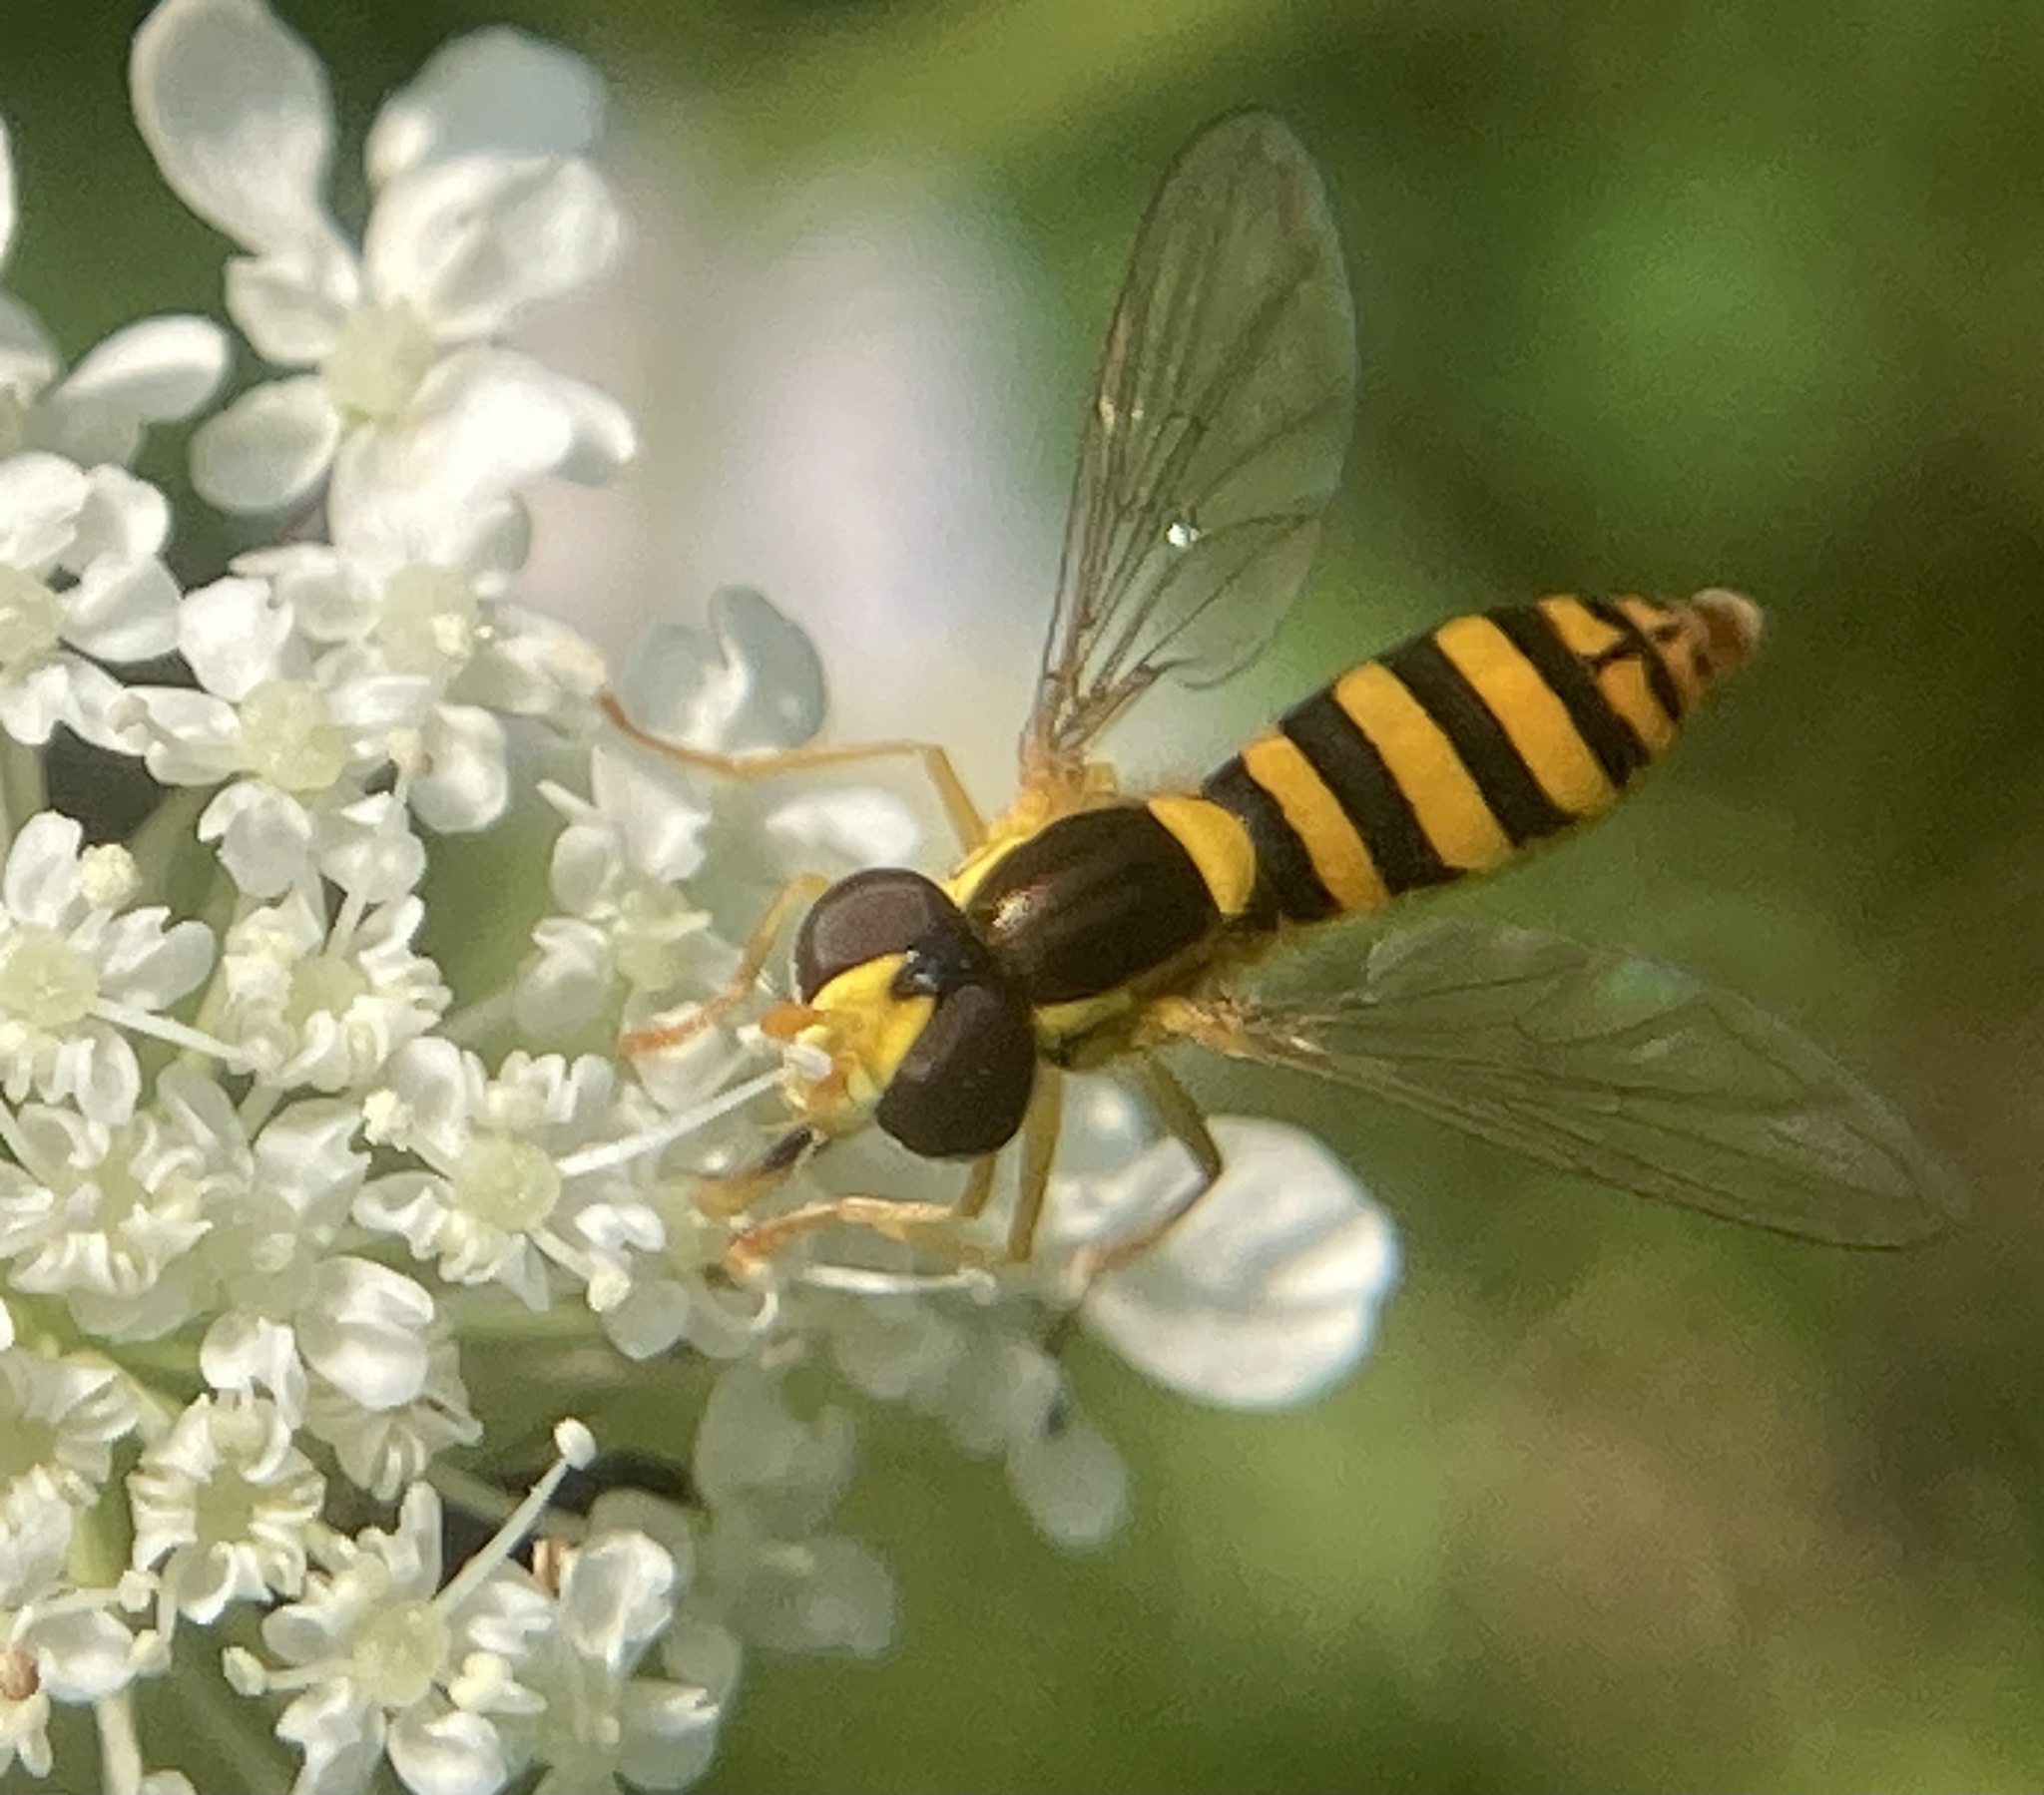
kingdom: Animalia
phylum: Arthropoda
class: Insecta
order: Diptera
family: Syrphidae
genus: Sphaerophoria
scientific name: Sphaerophoria
